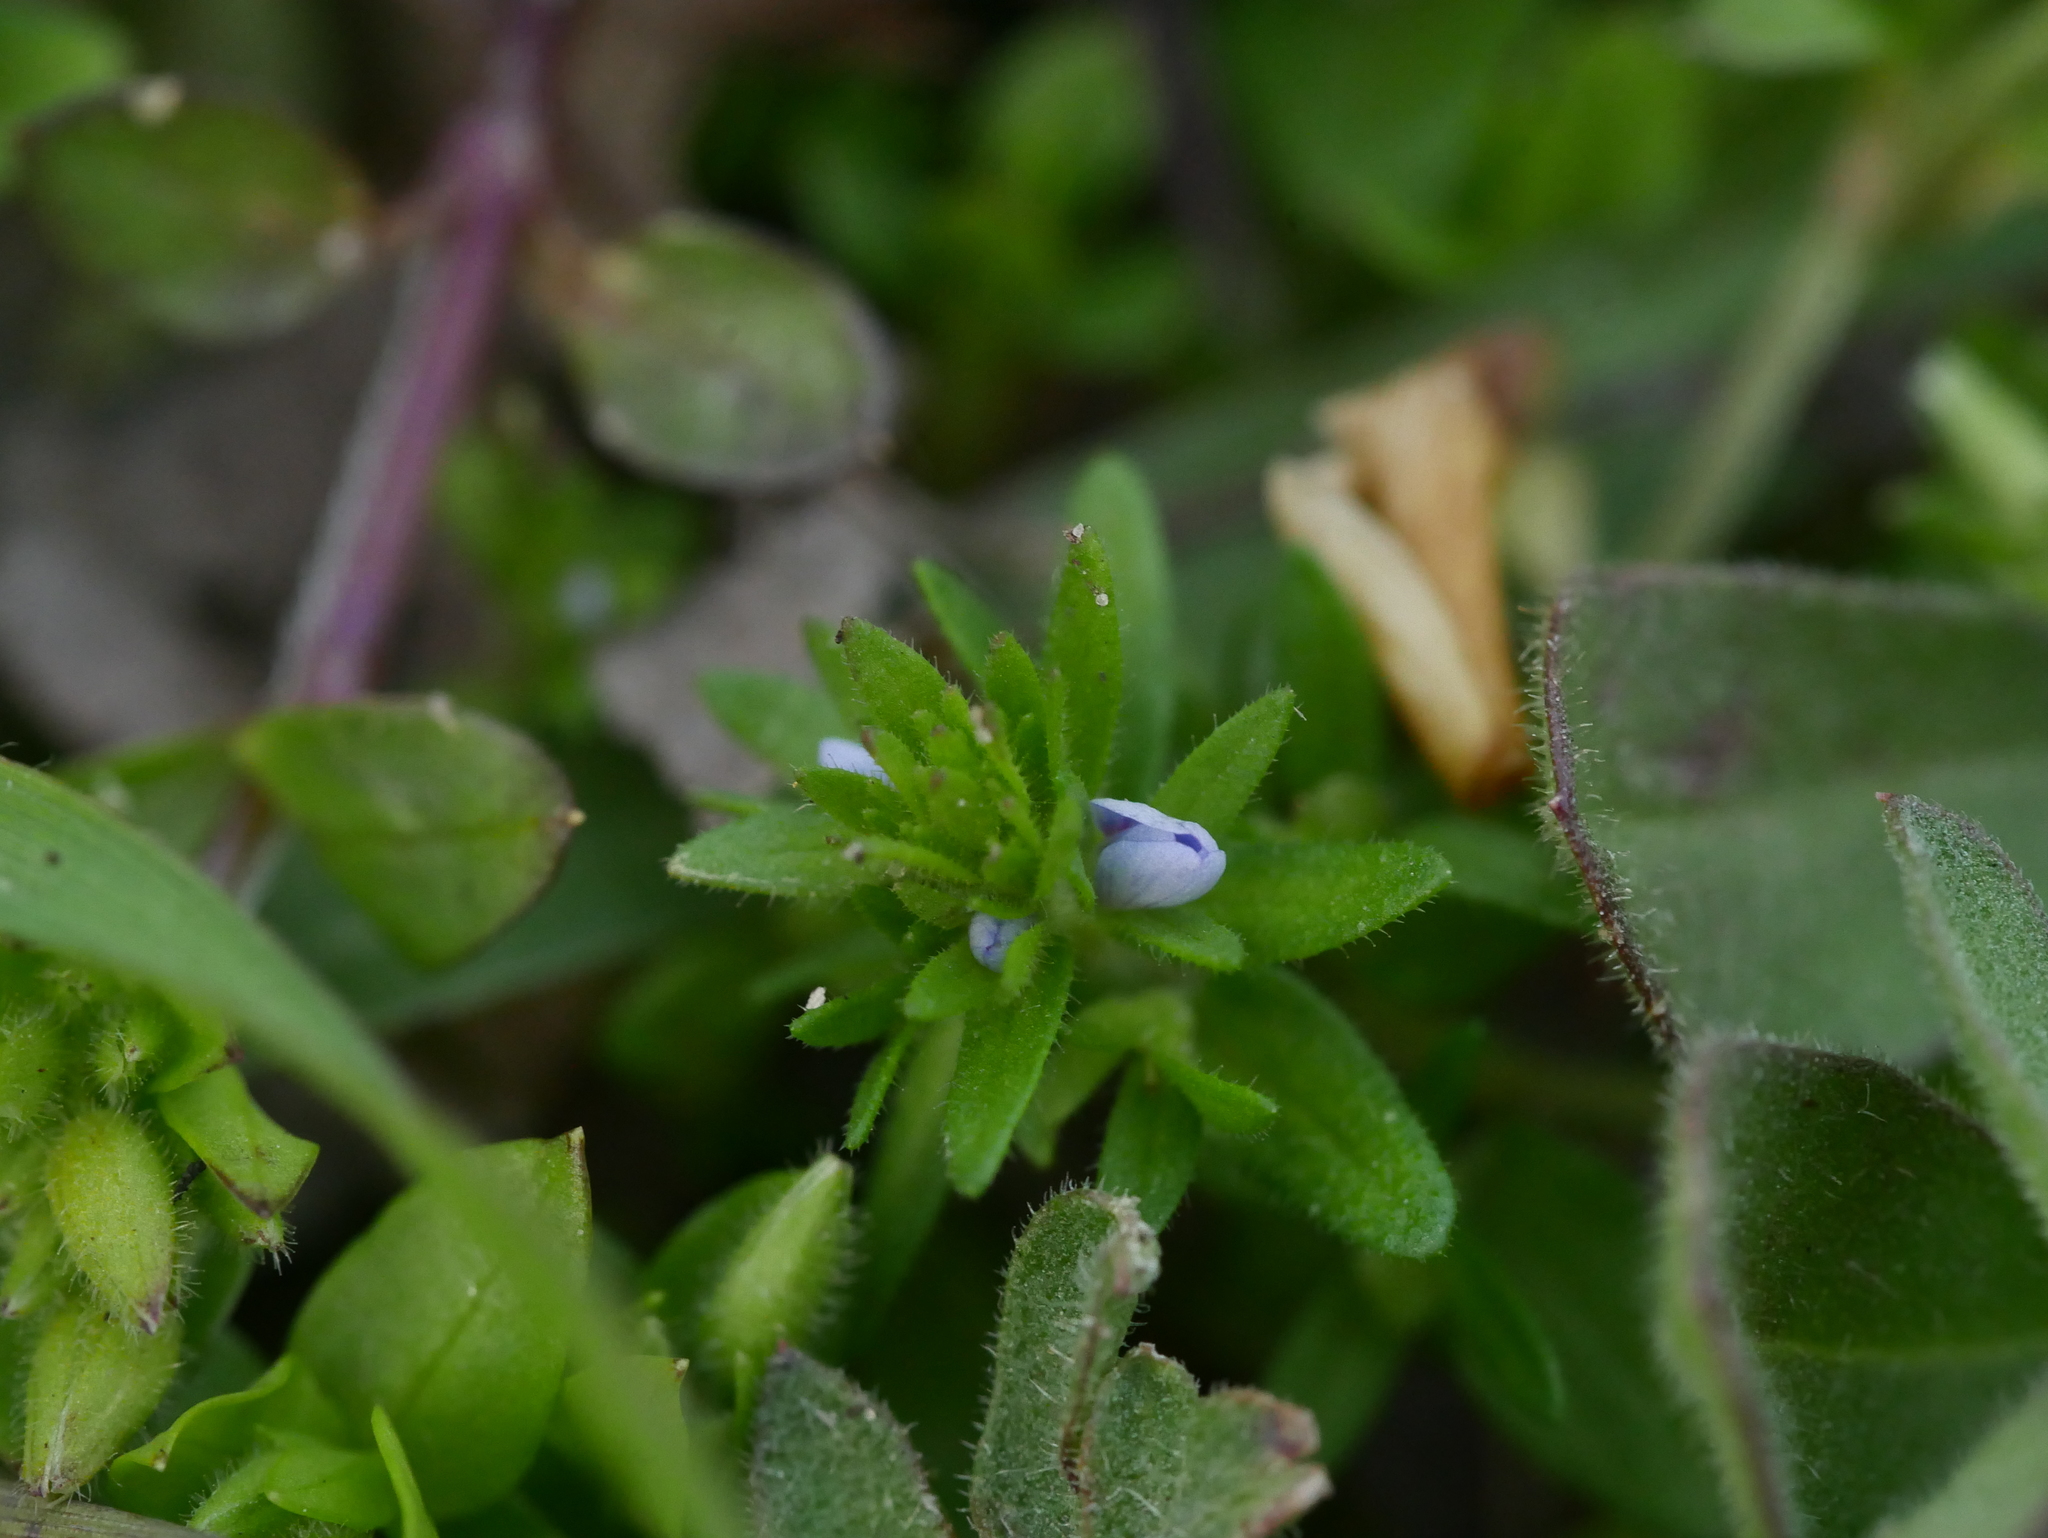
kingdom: Plantae
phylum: Tracheophyta
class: Magnoliopsida
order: Lamiales
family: Plantaginaceae
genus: Veronica
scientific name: Veronica arvensis
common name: Corn speedwell
